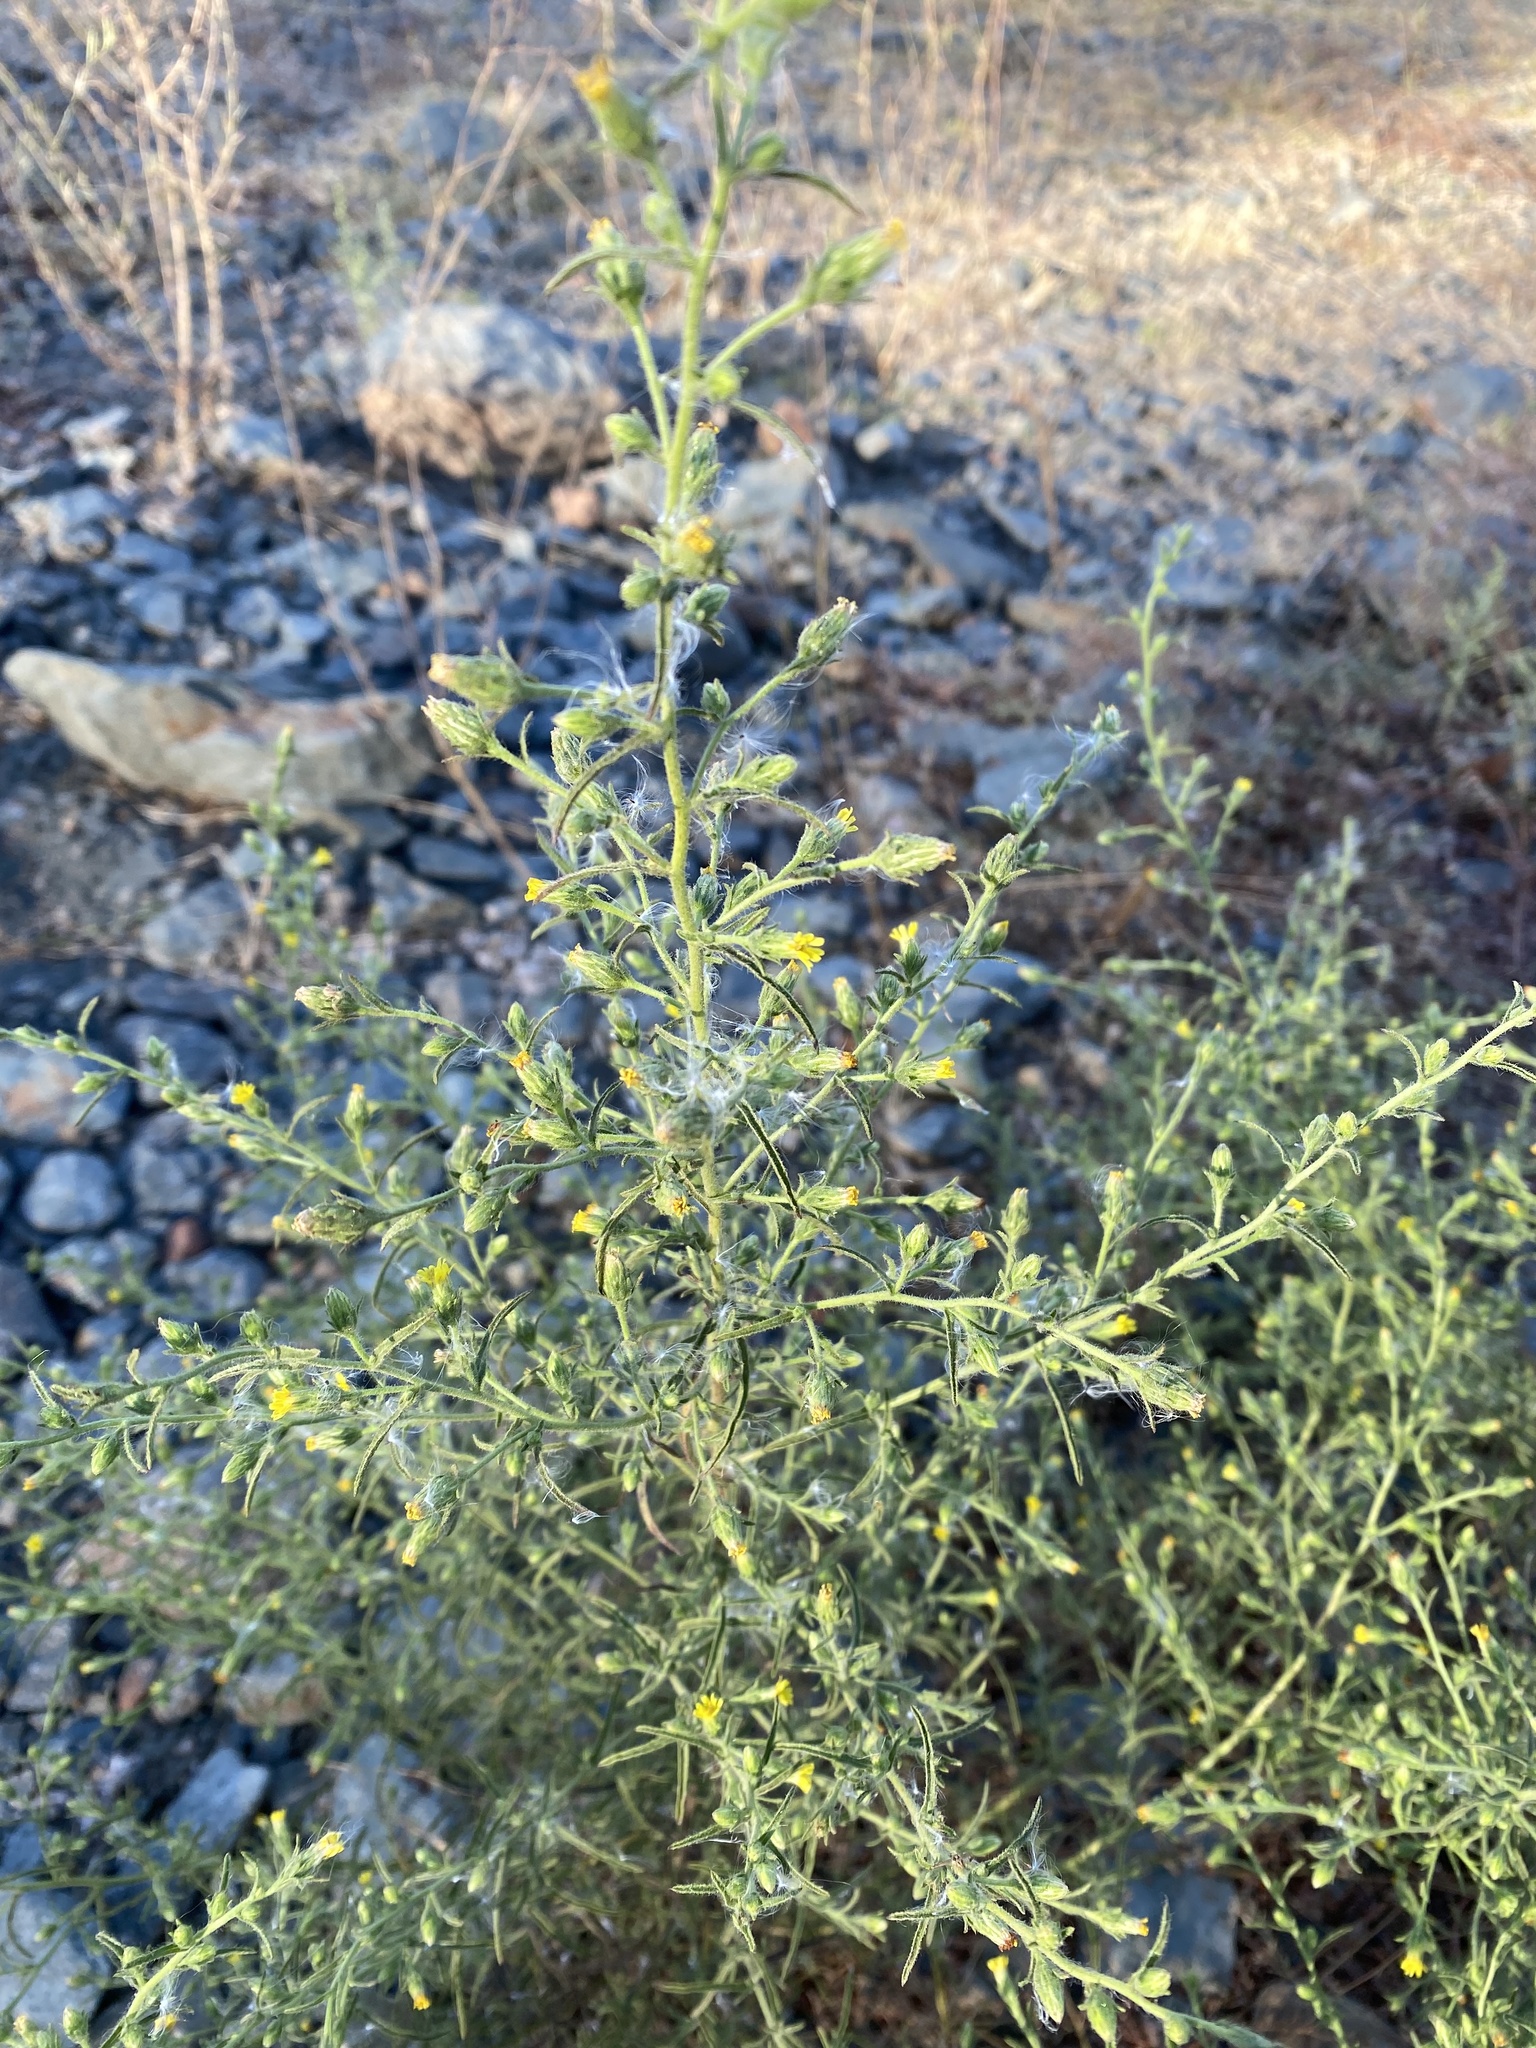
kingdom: Plantae
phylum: Tracheophyta
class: Magnoliopsida
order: Asterales
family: Asteraceae
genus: Dittrichia
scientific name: Dittrichia graveolens
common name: Stinking fleabane
